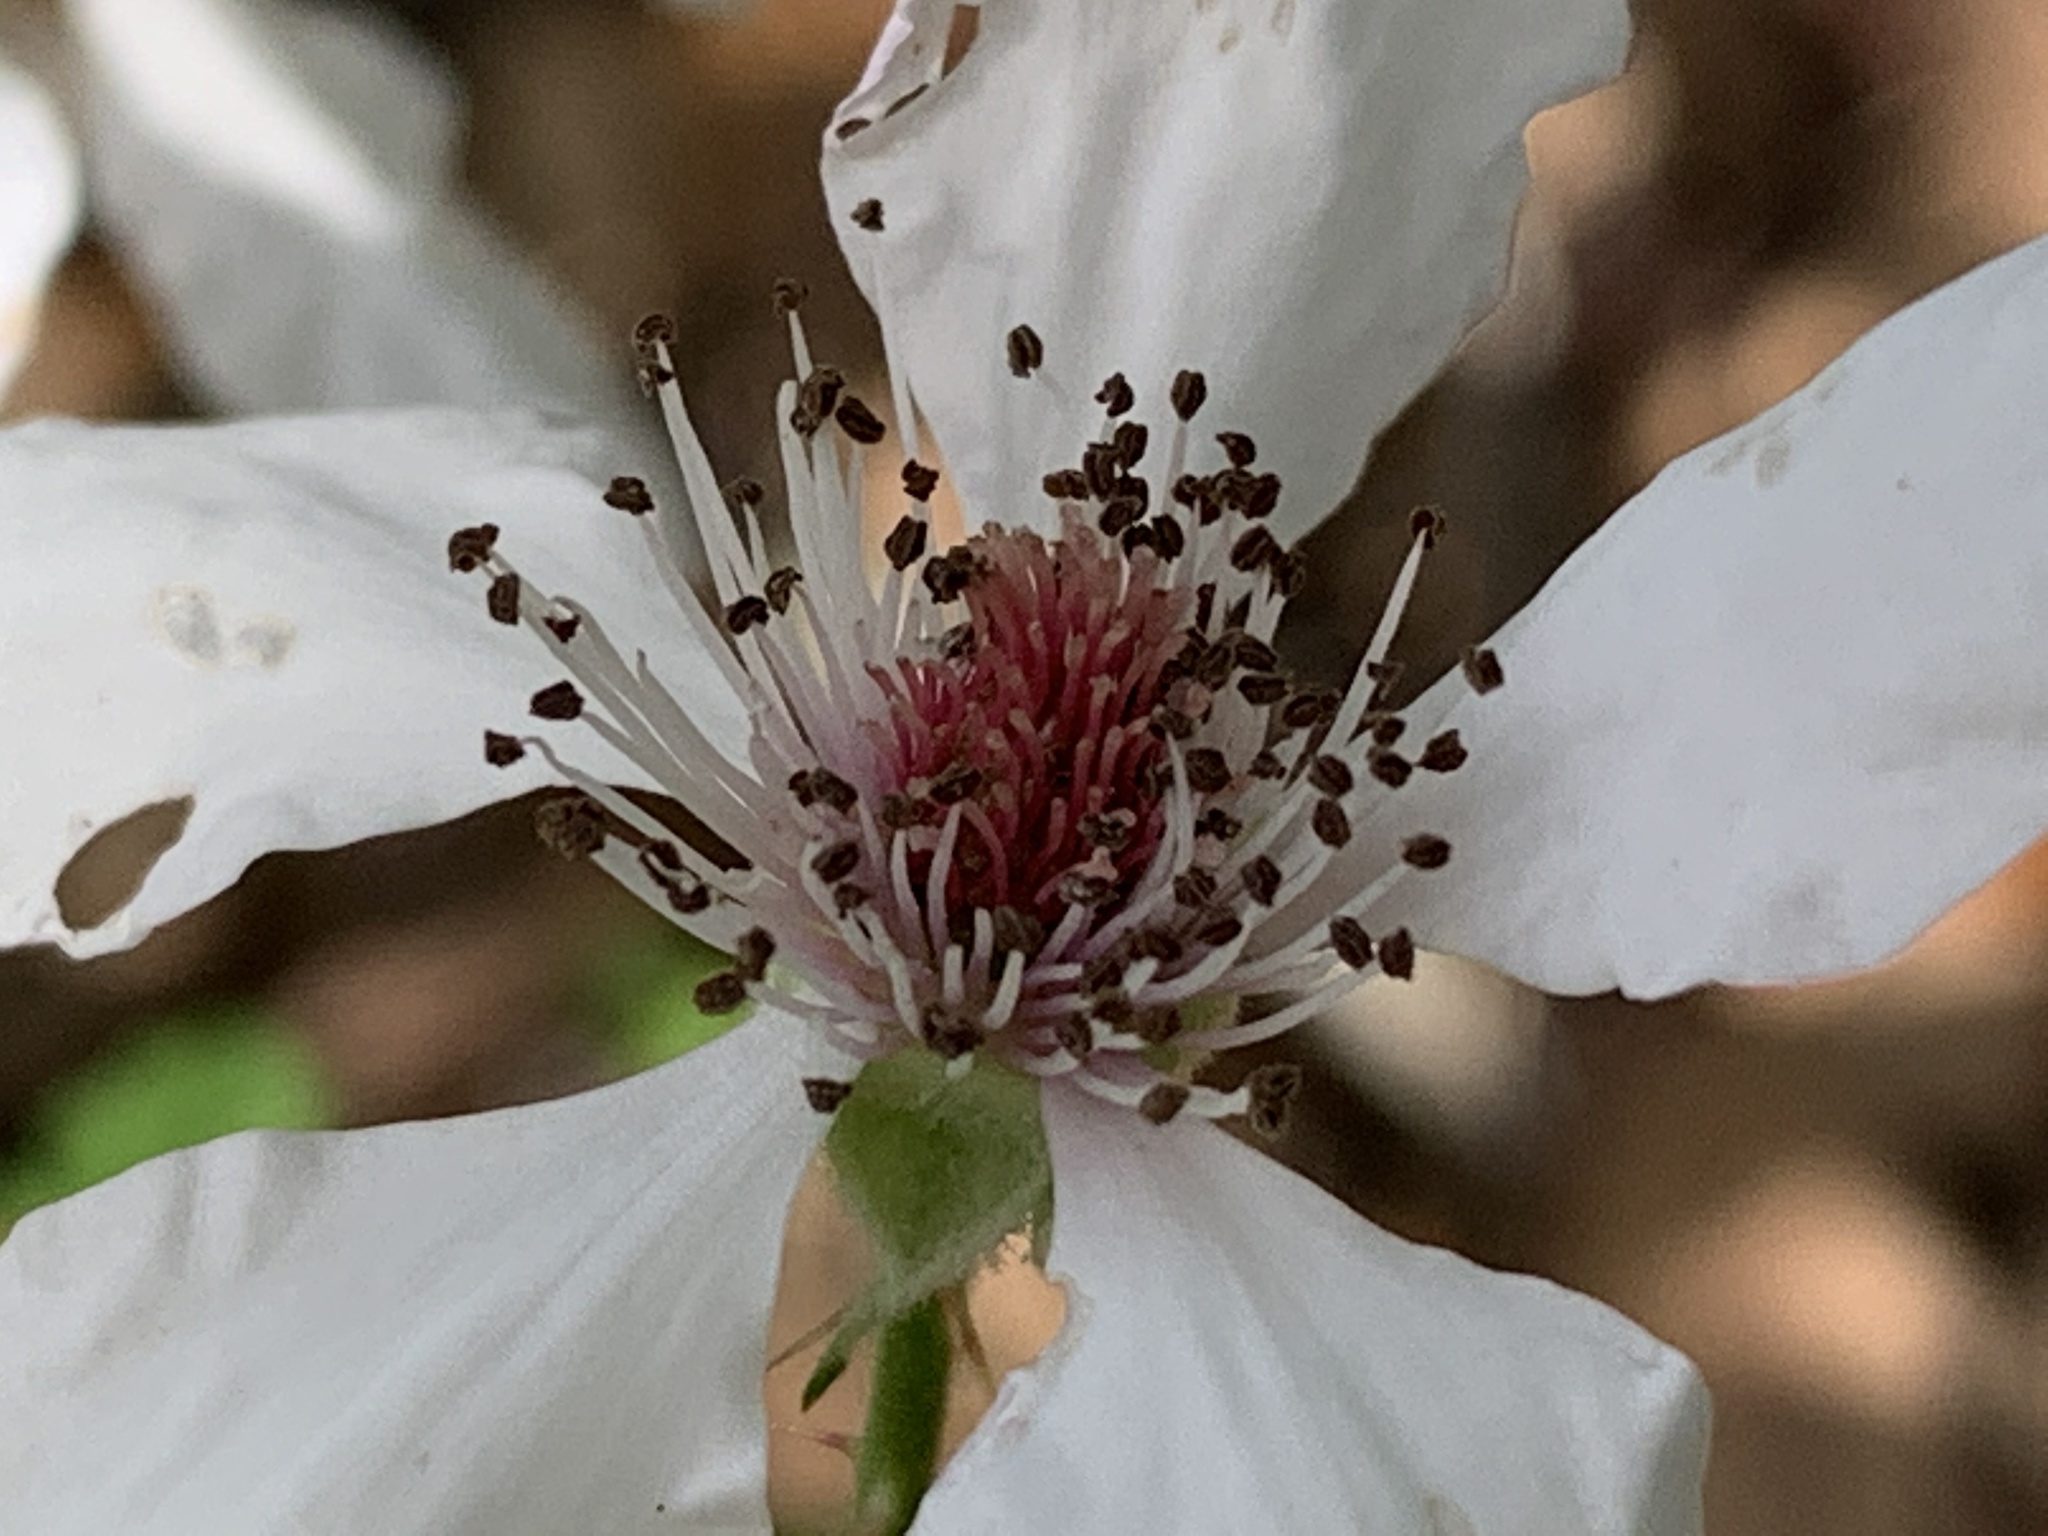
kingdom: Plantae
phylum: Tracheophyta
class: Magnoliopsida
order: Rosales
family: Rosaceae
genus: Rubus
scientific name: Rubus trivialis
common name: Southern dewberry
